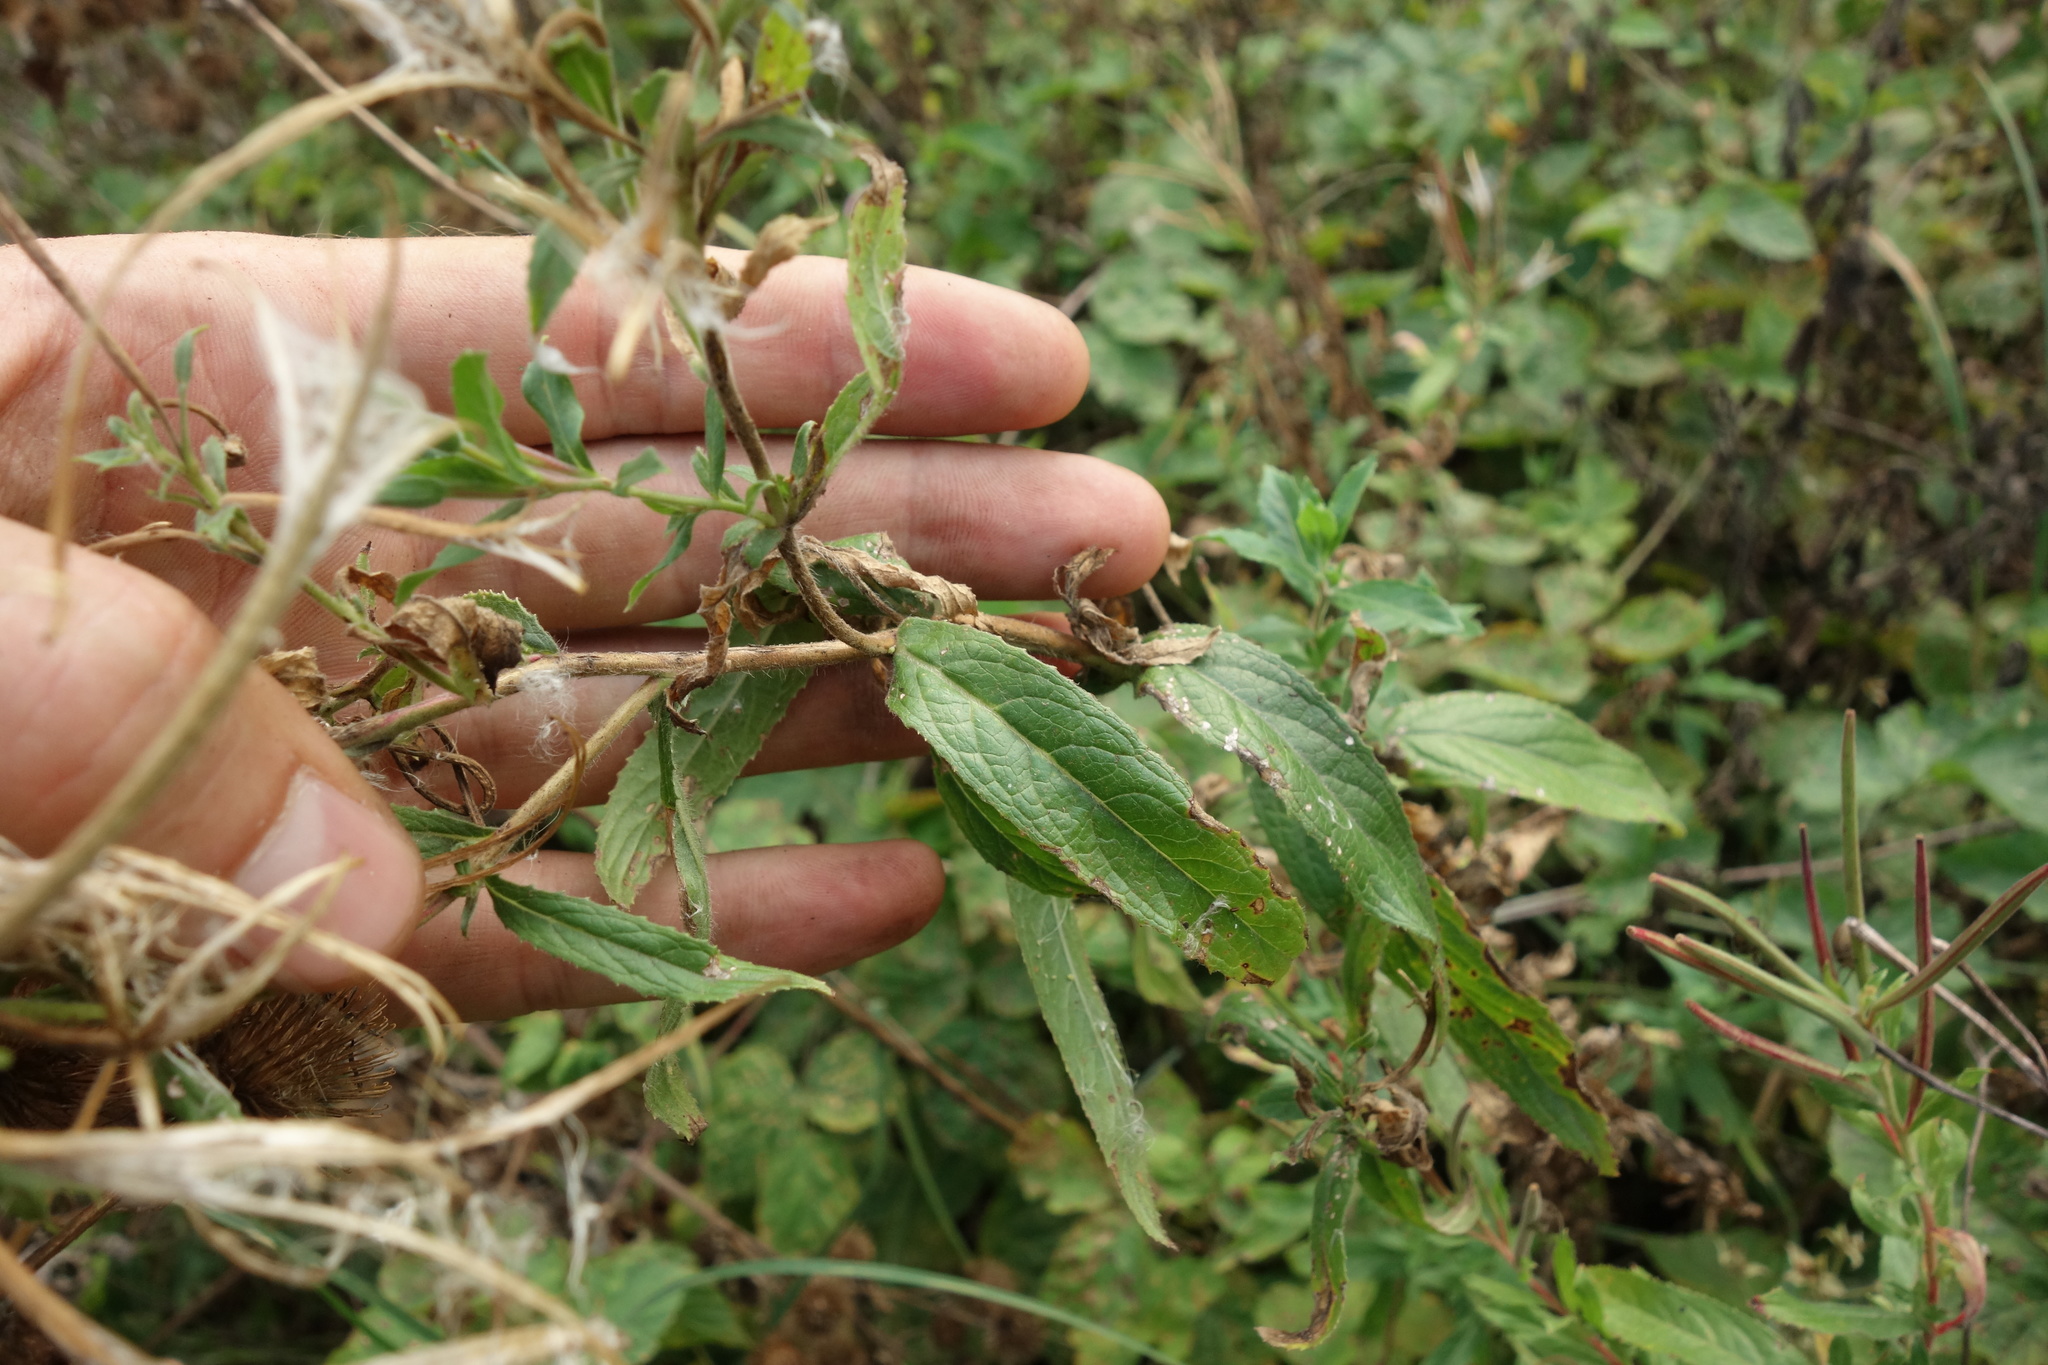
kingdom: Plantae
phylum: Tracheophyta
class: Magnoliopsida
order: Myrtales
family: Onagraceae
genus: Epilobium
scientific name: Epilobium hirsutum
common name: Great willowherb
